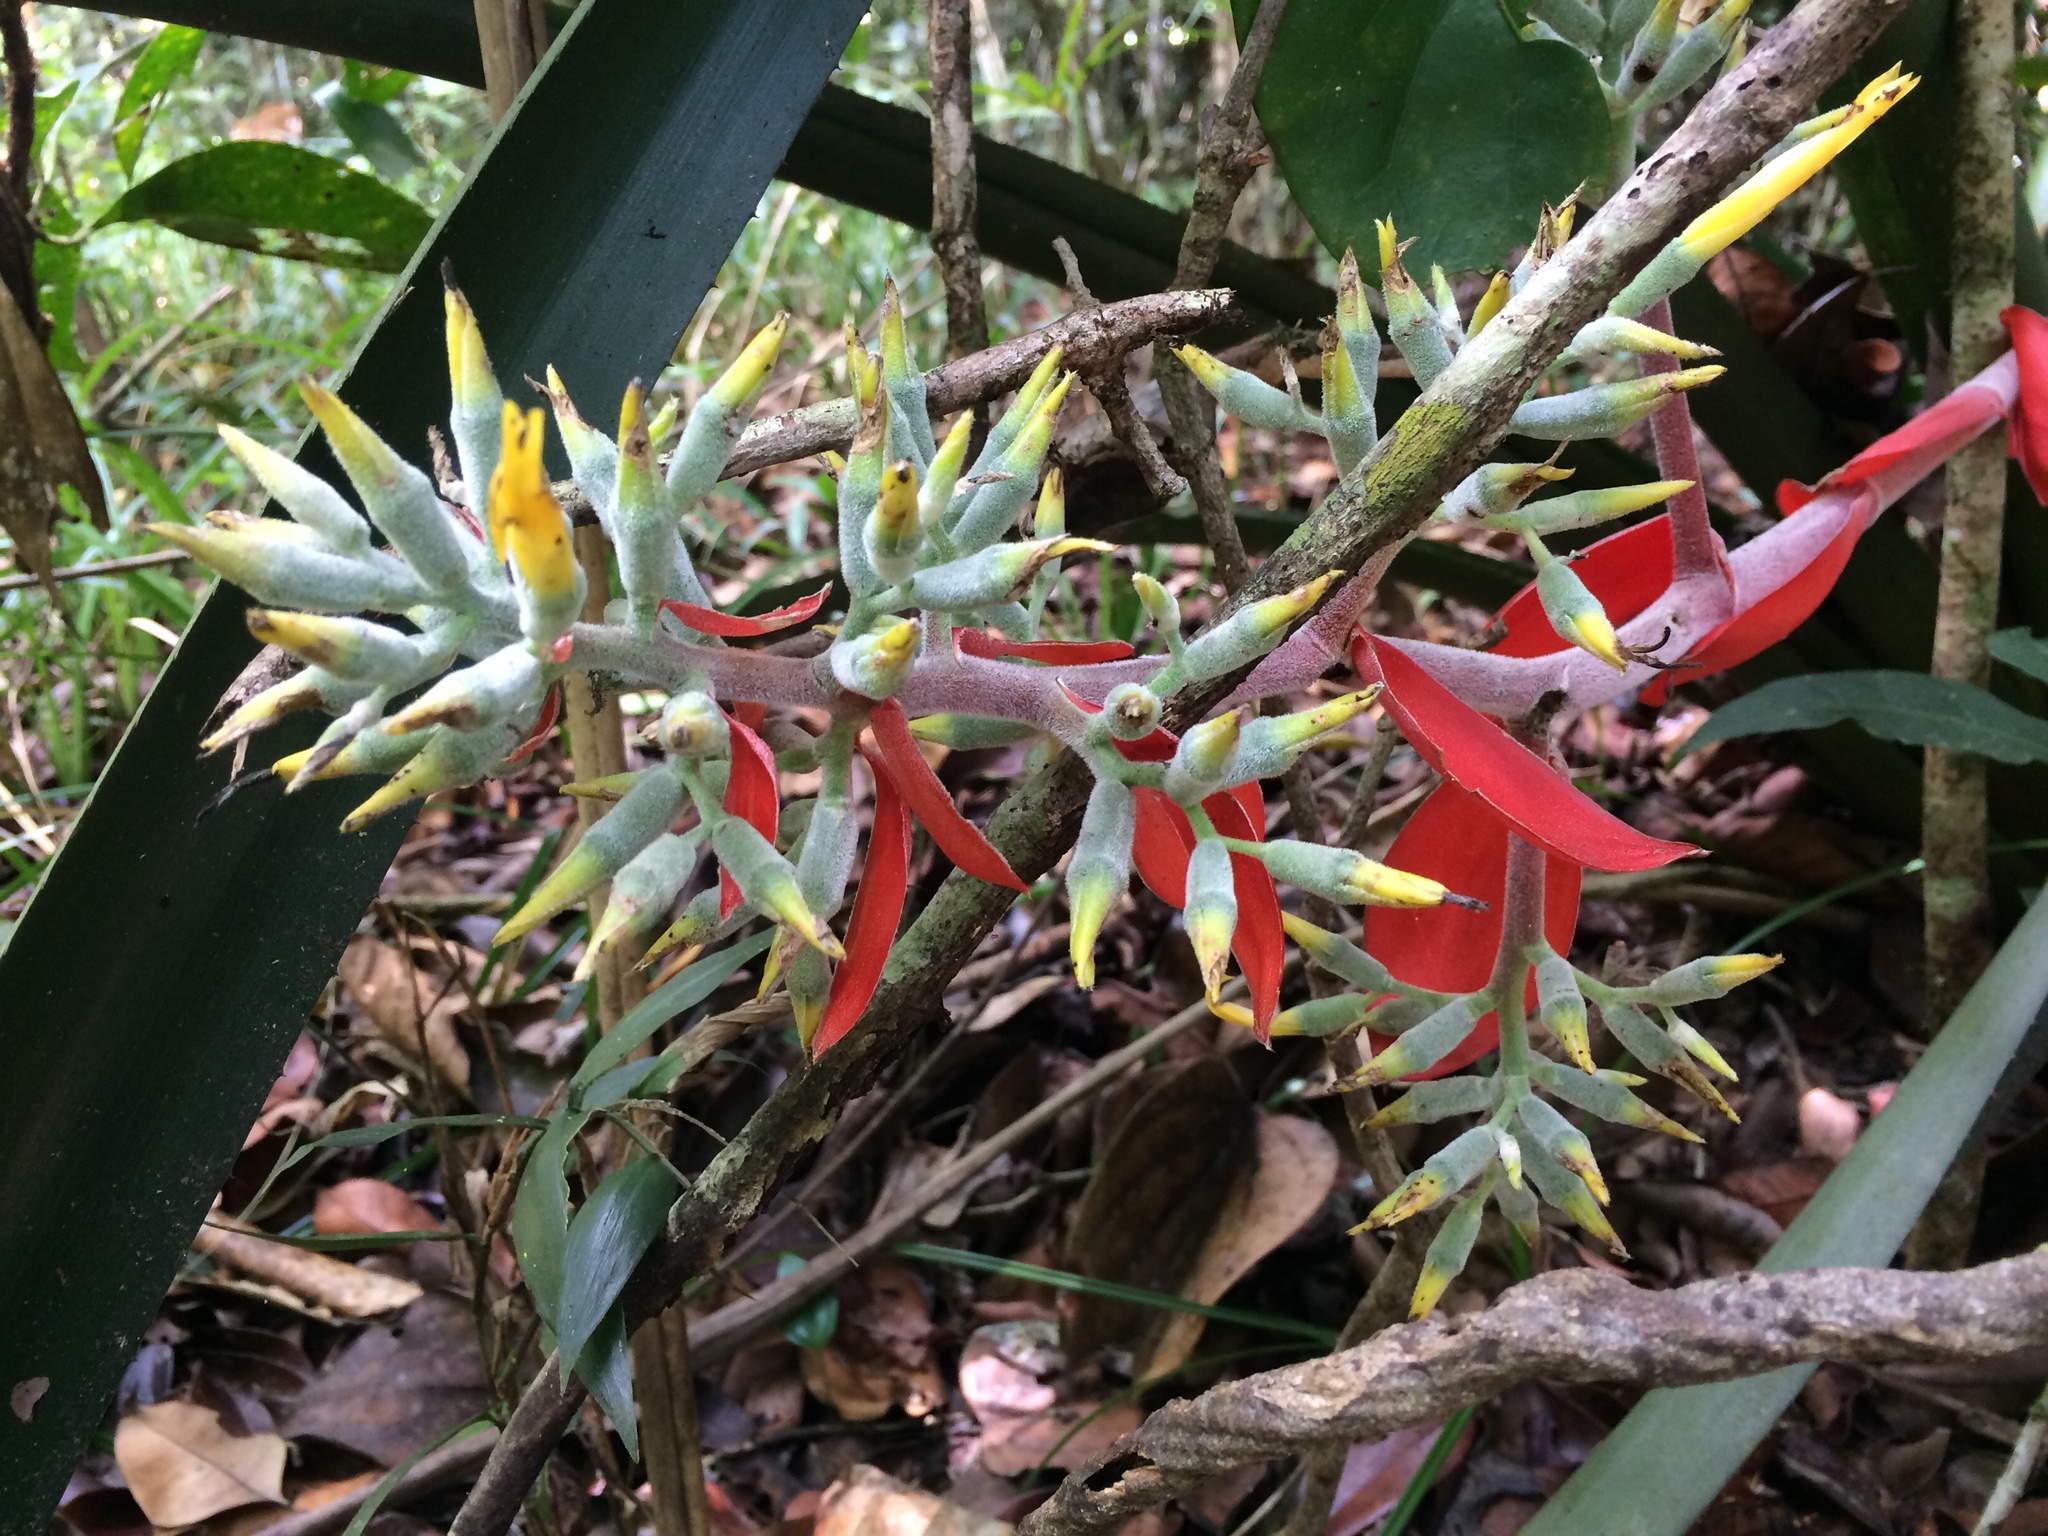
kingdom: Plantae
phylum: Tracheophyta
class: Liliopsida
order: Poales
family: Bromeliaceae
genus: Aechmea
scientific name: Aechmea costantinii
